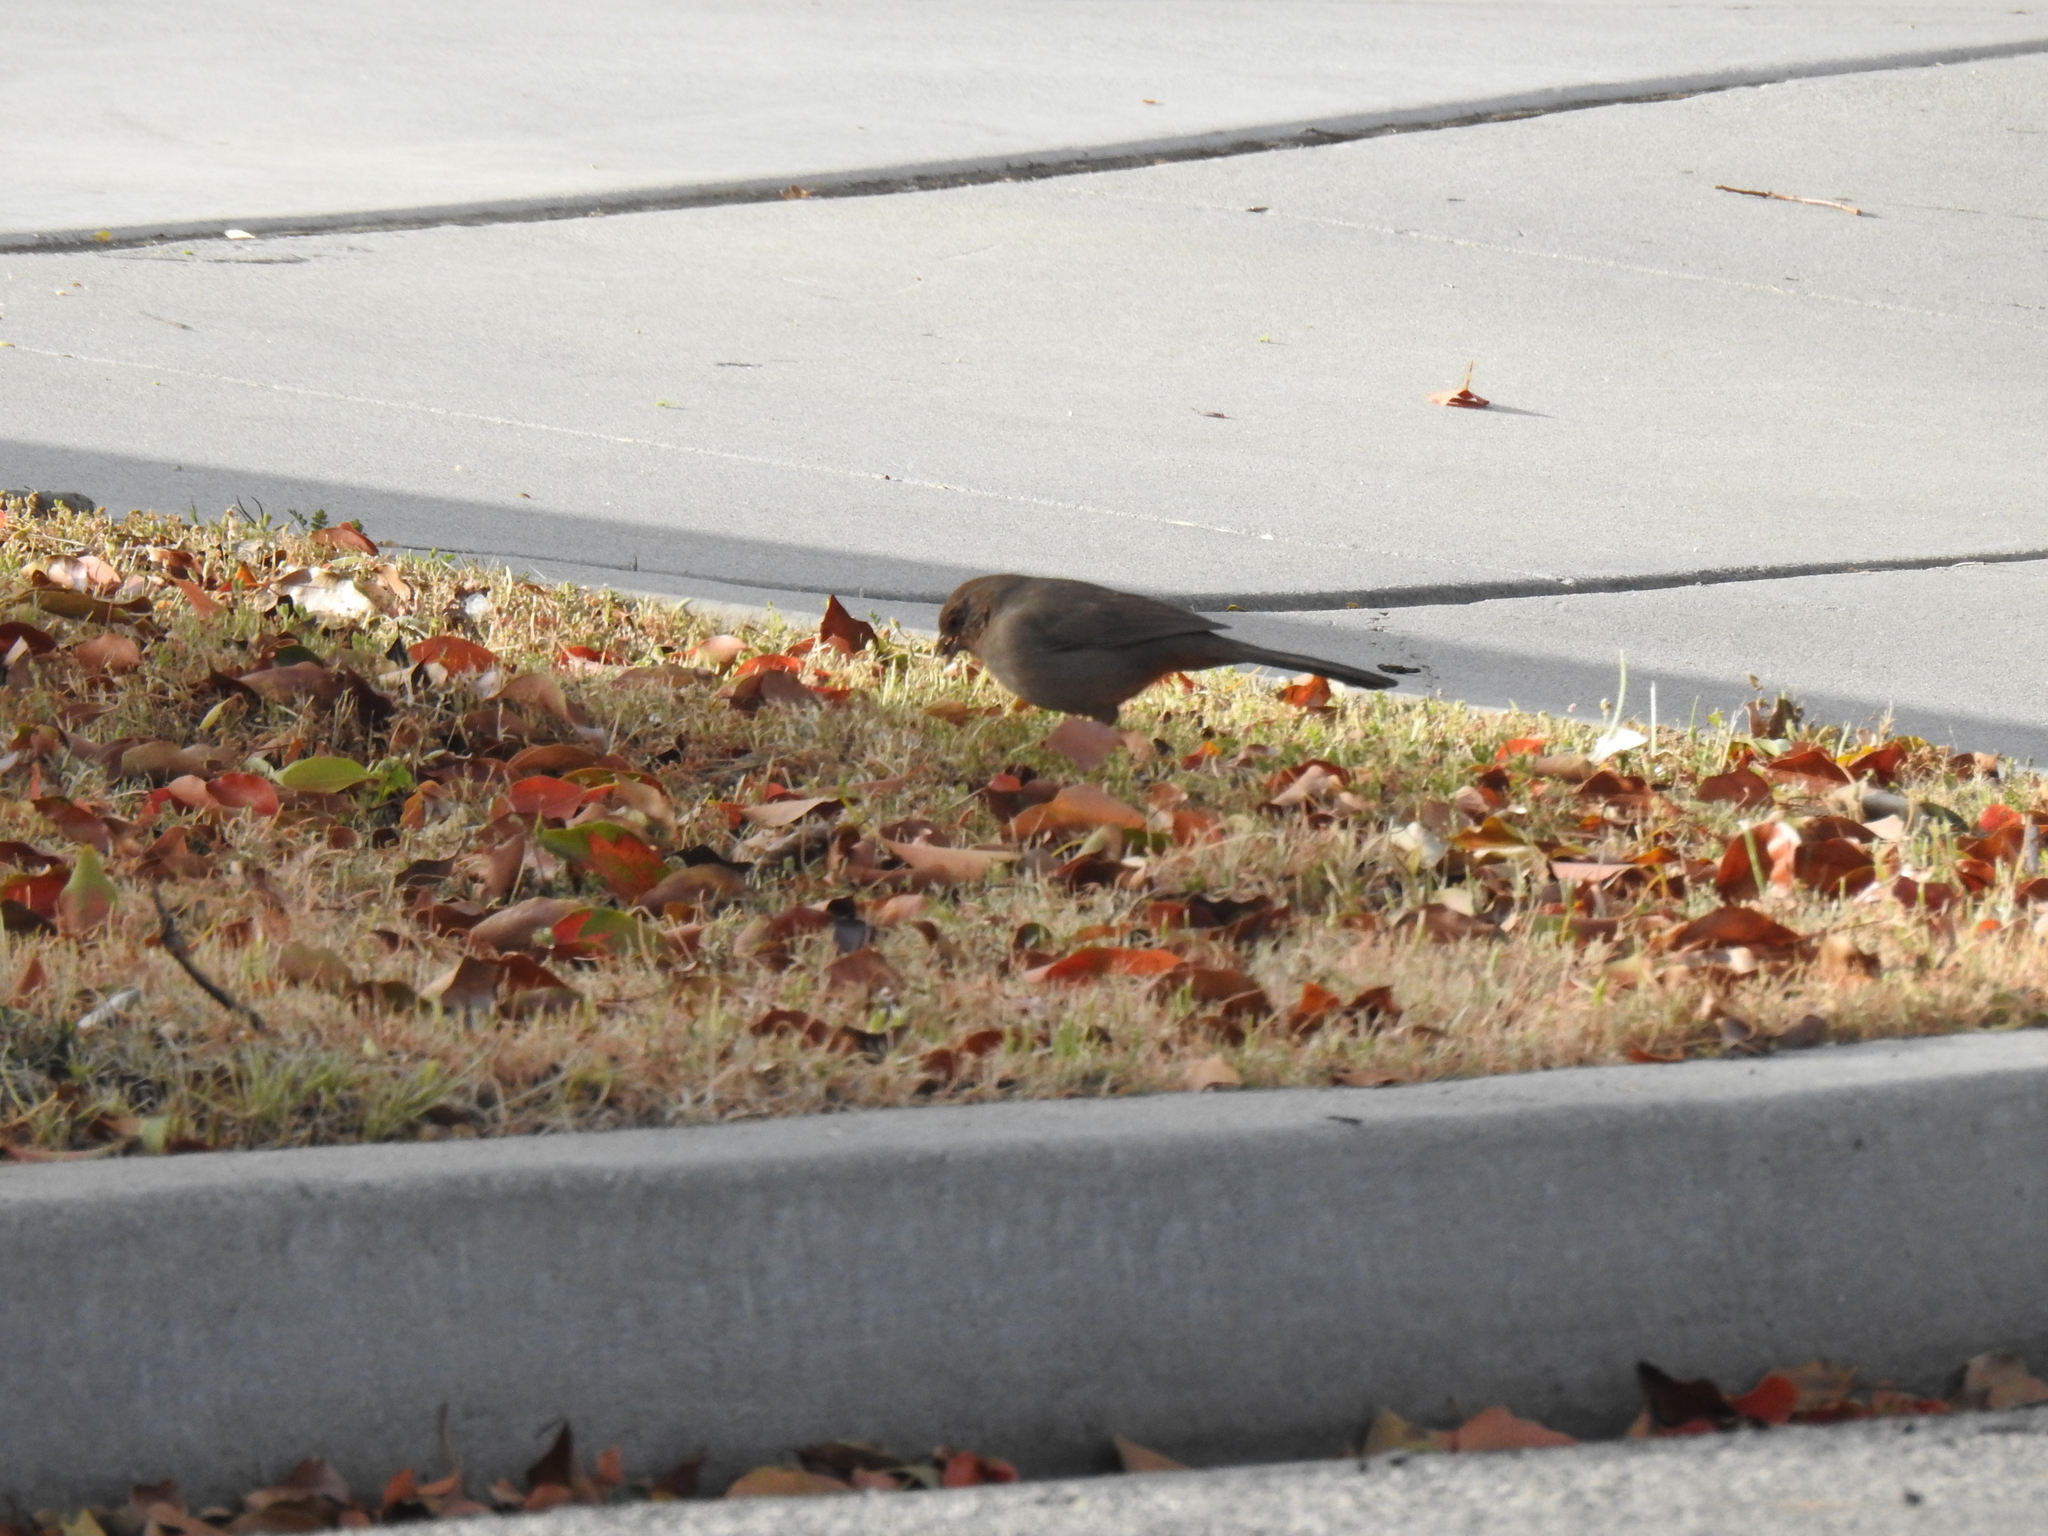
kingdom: Animalia
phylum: Chordata
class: Aves
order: Passeriformes
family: Passerellidae
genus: Melozone
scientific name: Melozone crissalis
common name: California towhee
